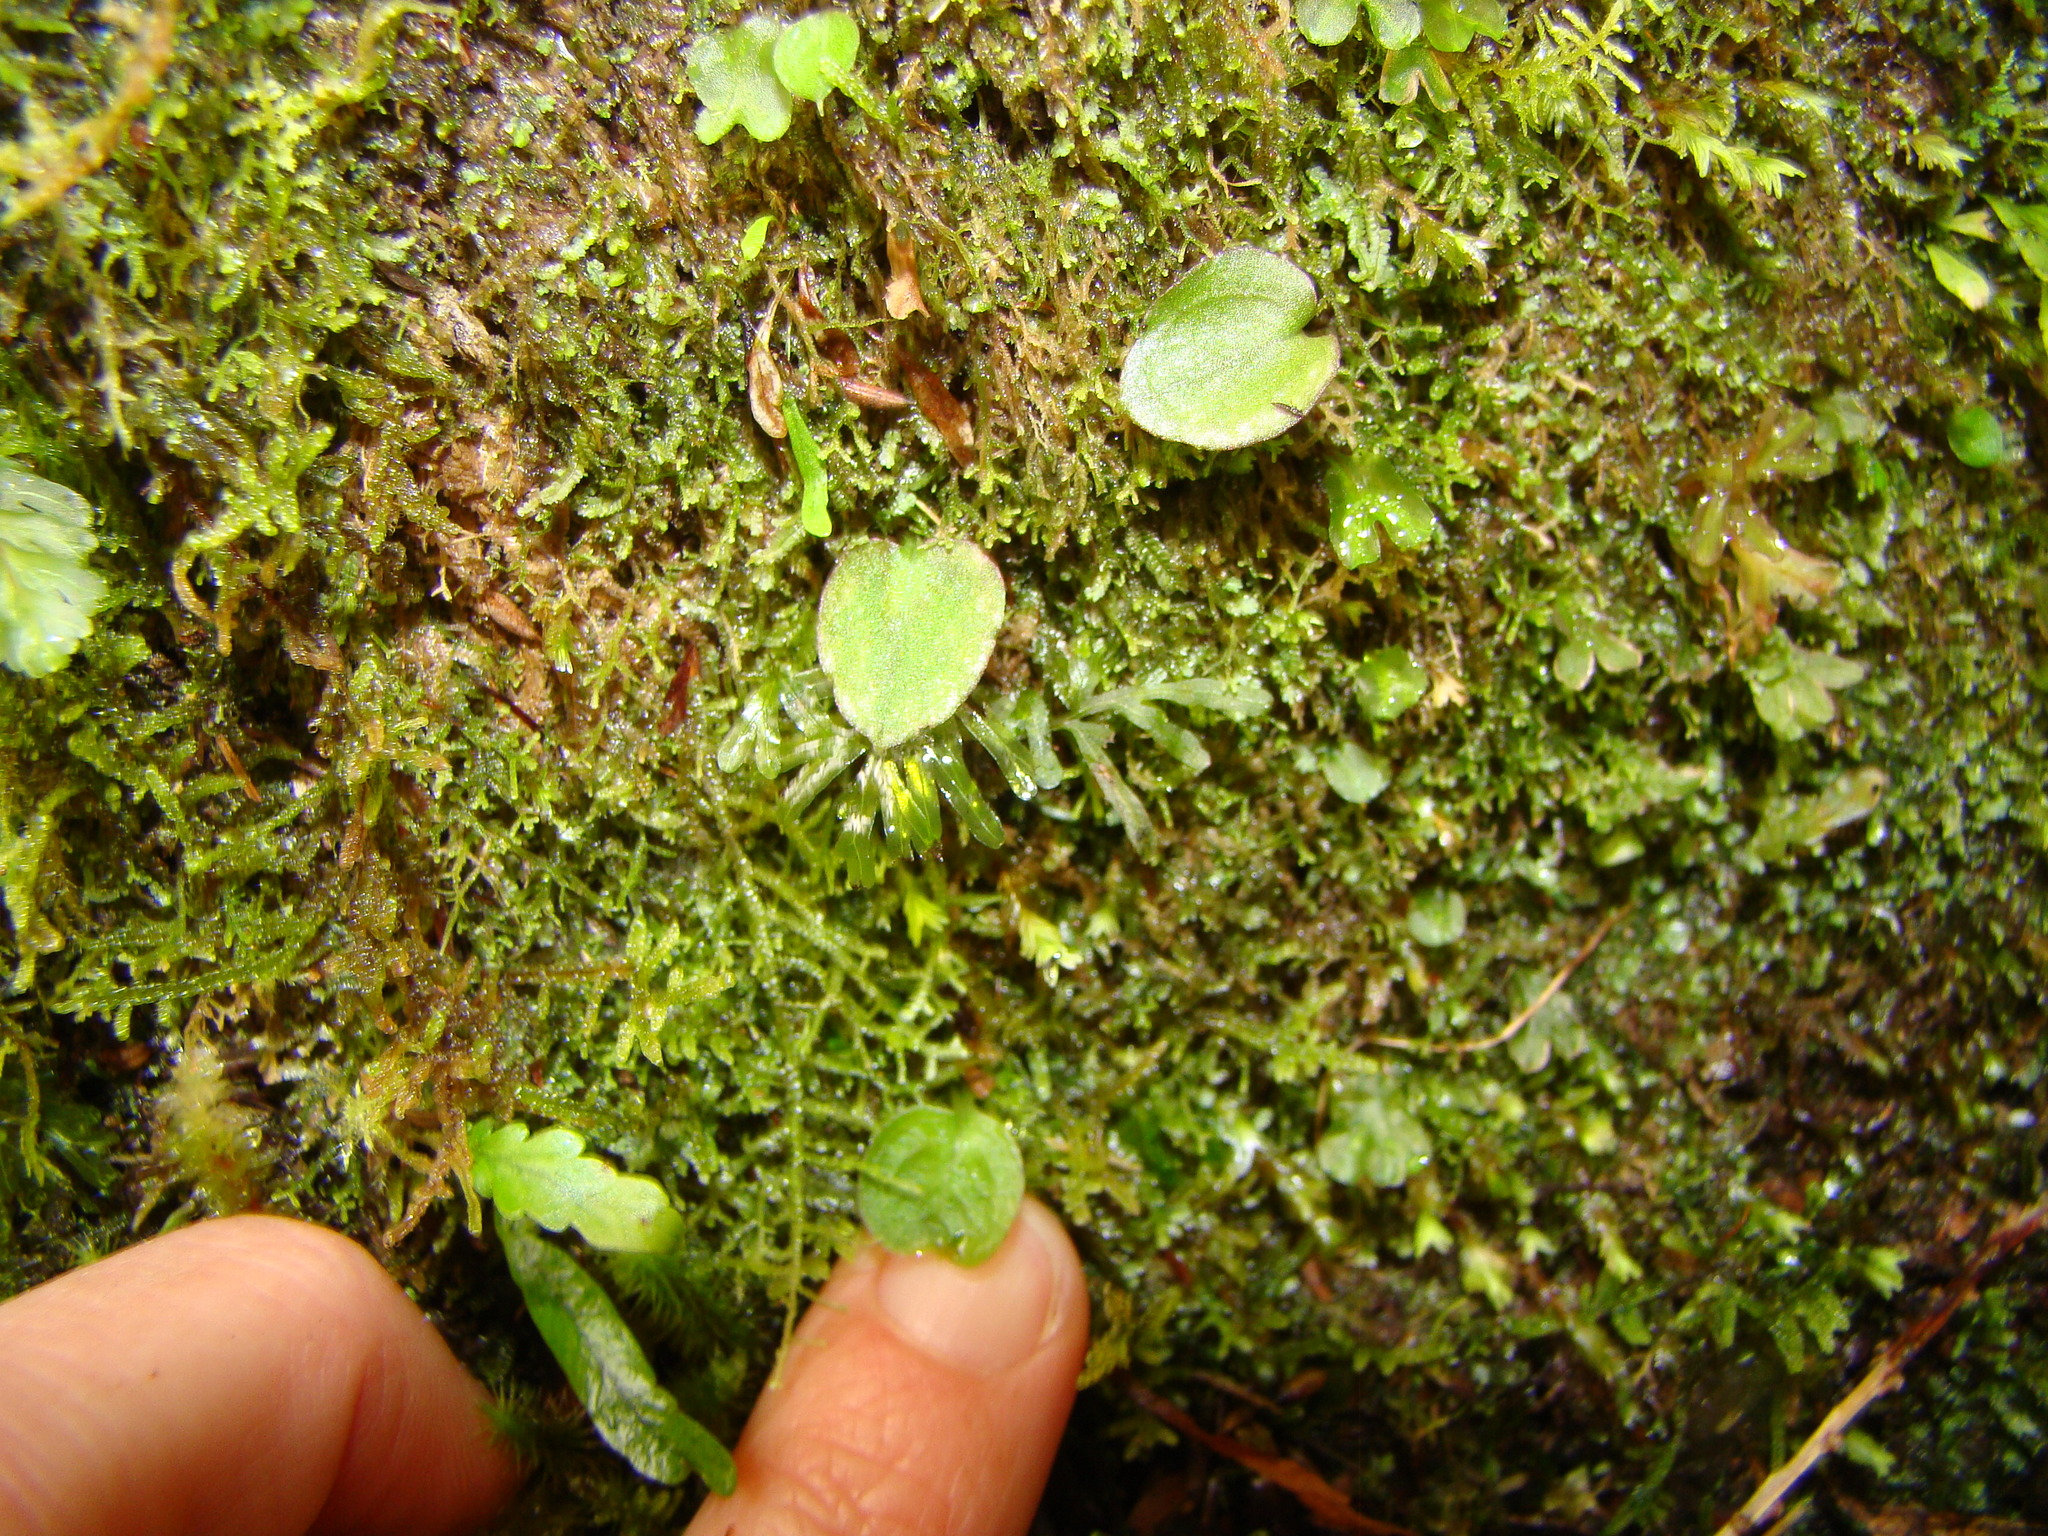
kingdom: Plantae
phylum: Tracheophyta
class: Liliopsida
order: Asparagales
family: Orchidaceae
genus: Corybas
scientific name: Corybas oblongus
